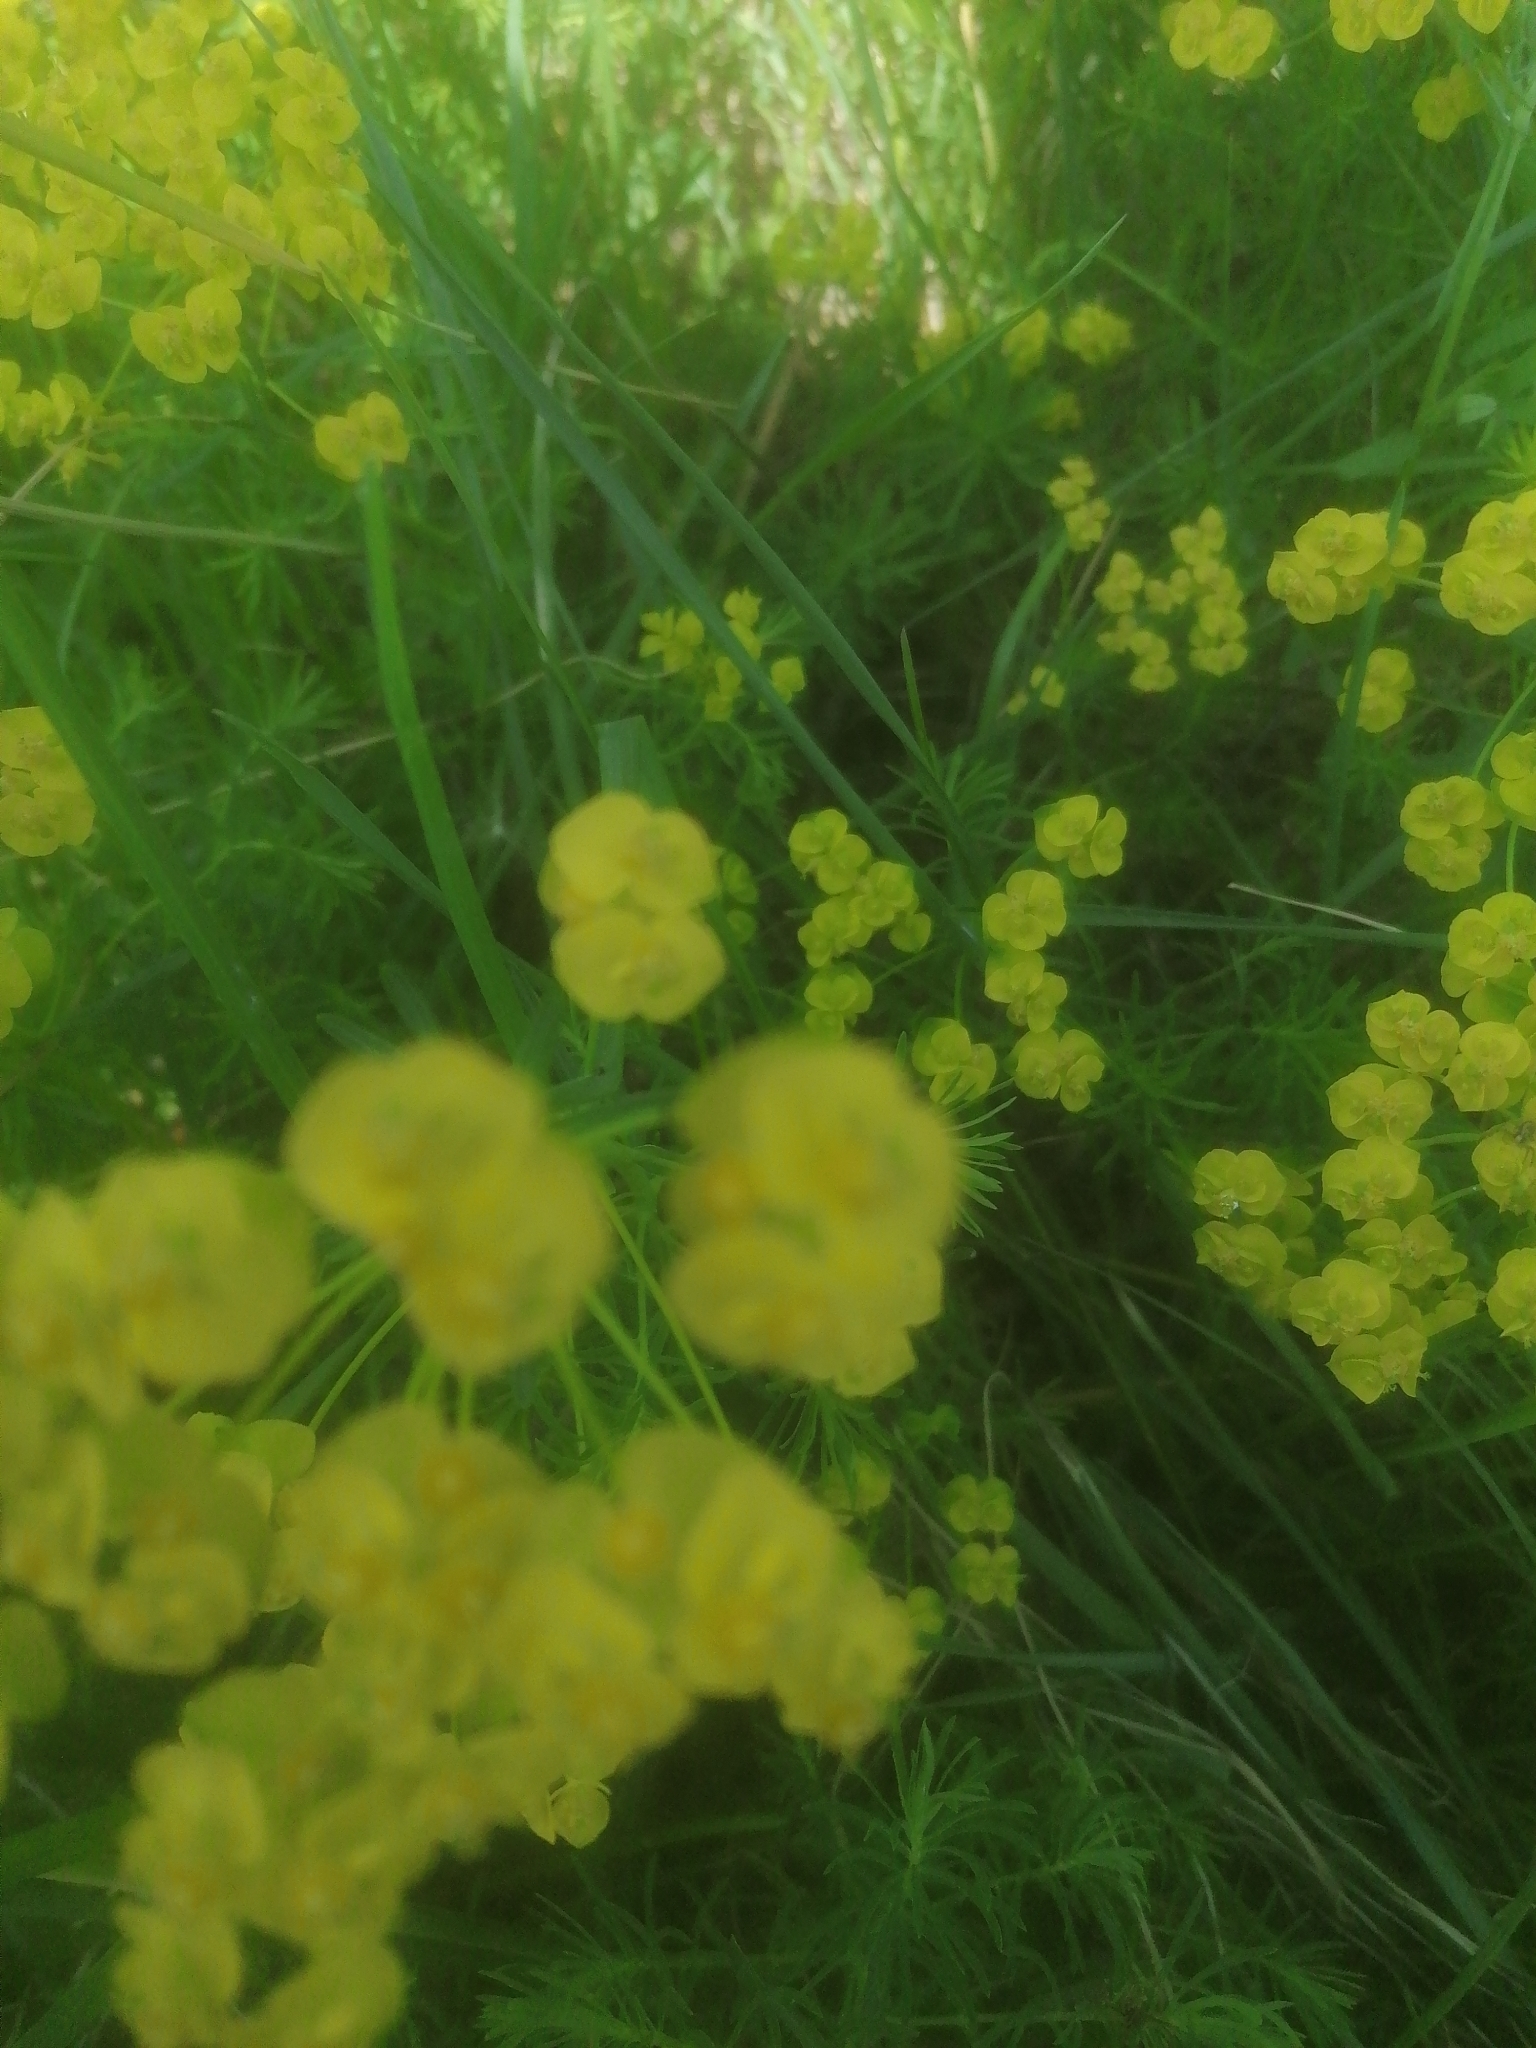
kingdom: Plantae
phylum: Tracheophyta
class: Magnoliopsida
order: Malpighiales
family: Euphorbiaceae
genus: Euphorbia
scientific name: Euphorbia cyparissias
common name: Cypress spurge
